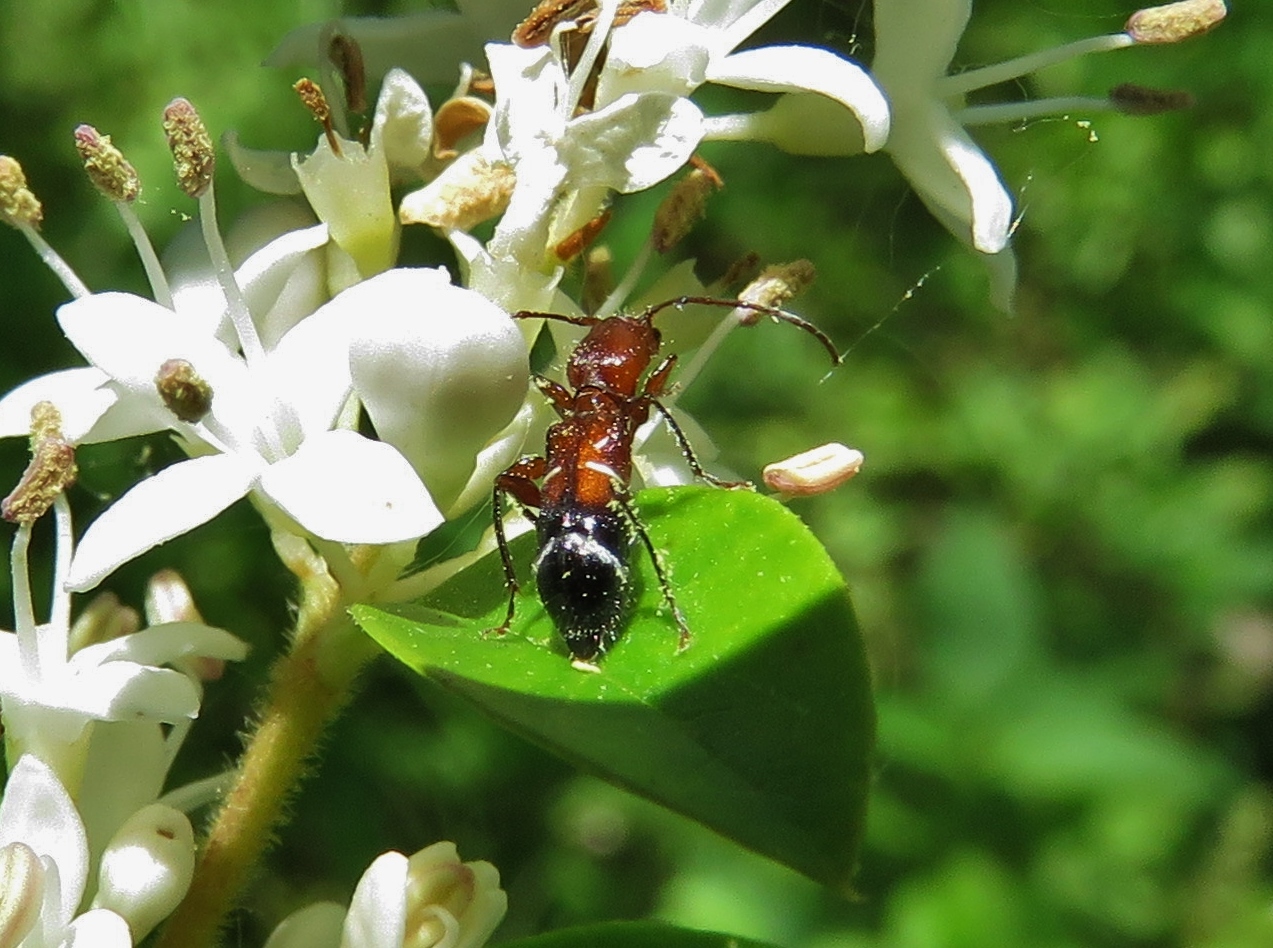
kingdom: Animalia
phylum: Arthropoda
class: Insecta
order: Coleoptera
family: Cerambycidae
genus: Euderces
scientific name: Euderces pini
